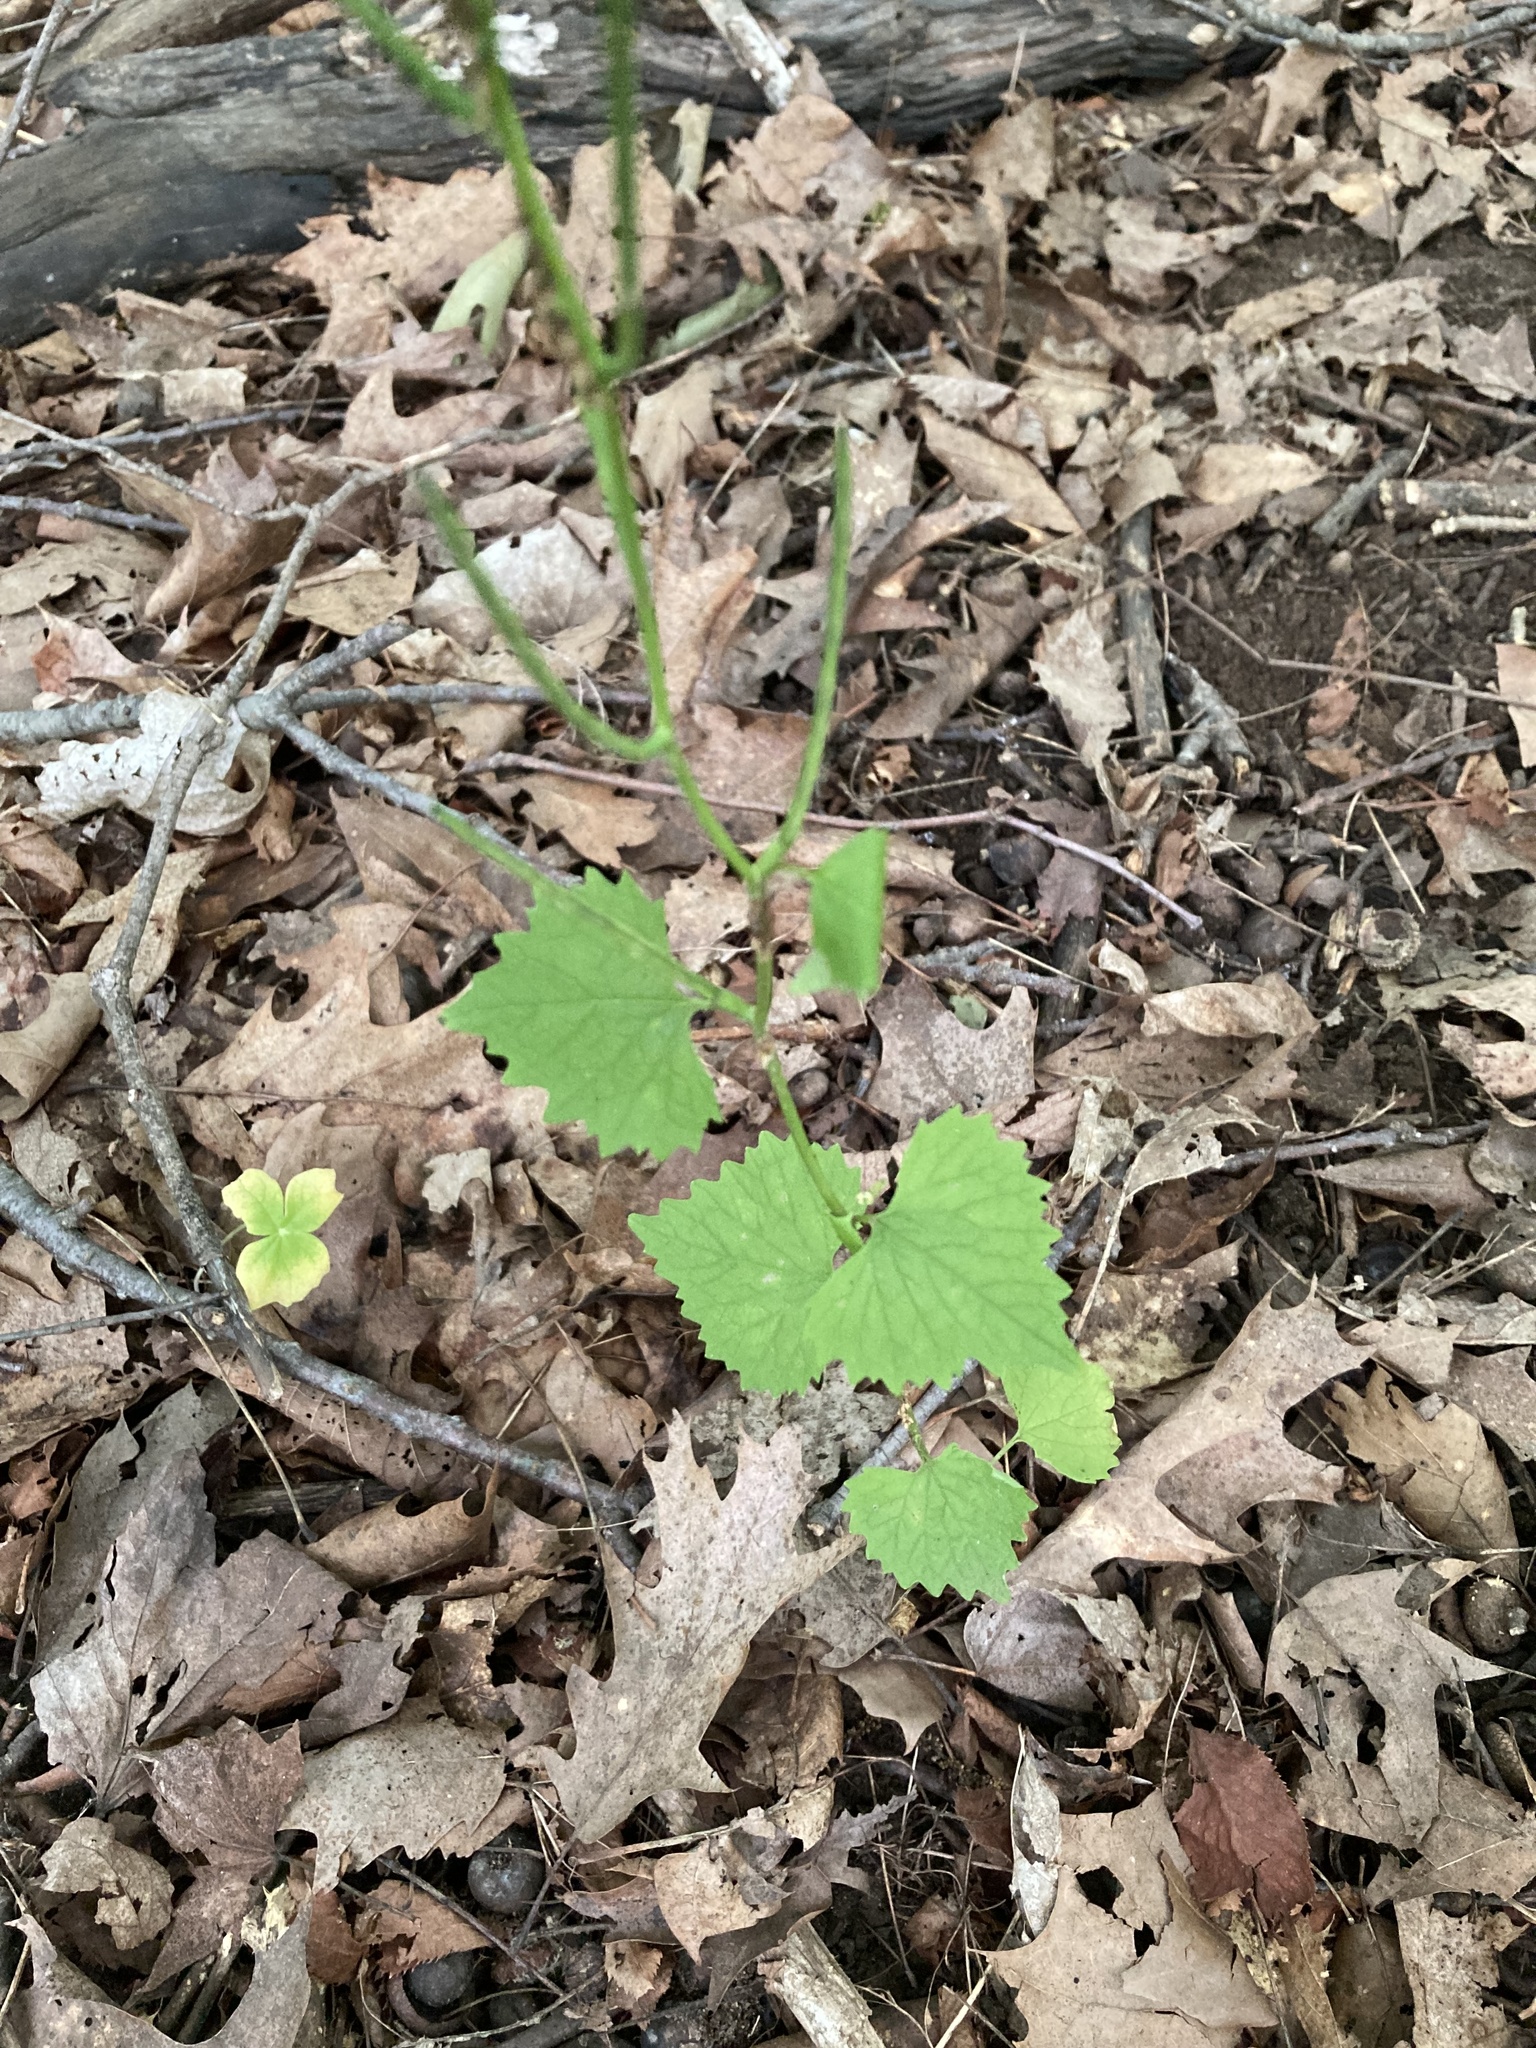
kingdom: Plantae
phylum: Tracheophyta
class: Magnoliopsida
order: Brassicales
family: Brassicaceae
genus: Alliaria
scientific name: Alliaria petiolata
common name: Garlic mustard
